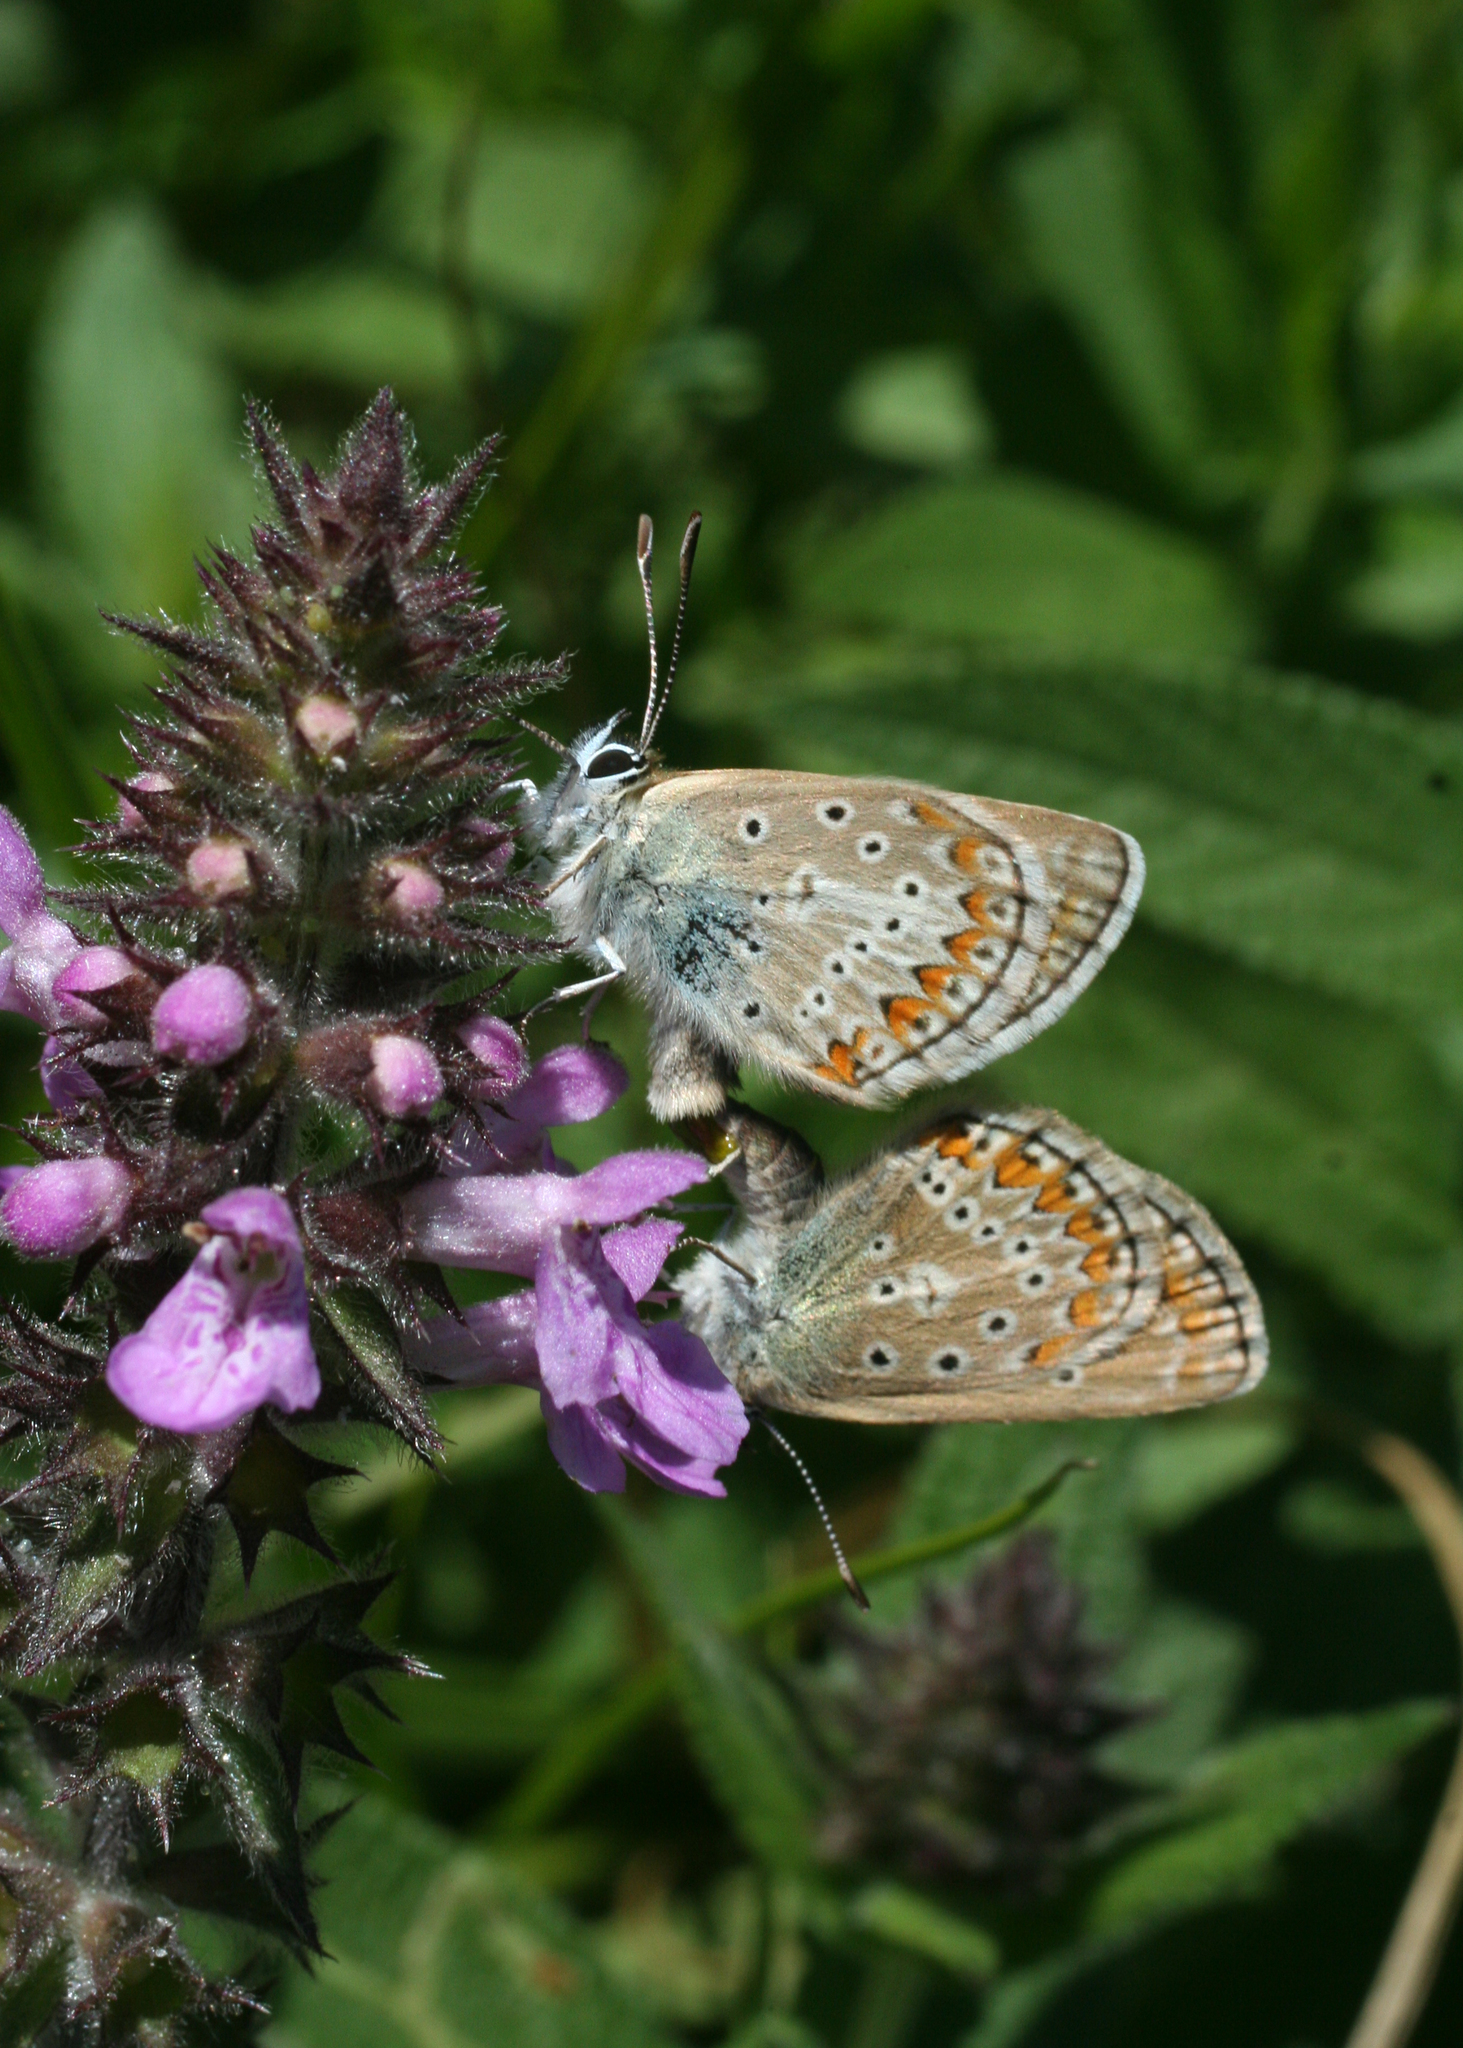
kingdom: Animalia
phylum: Arthropoda
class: Insecta
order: Lepidoptera
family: Lycaenidae
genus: Eumedonia
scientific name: Eumedonia eumedon
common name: Geranium argus
